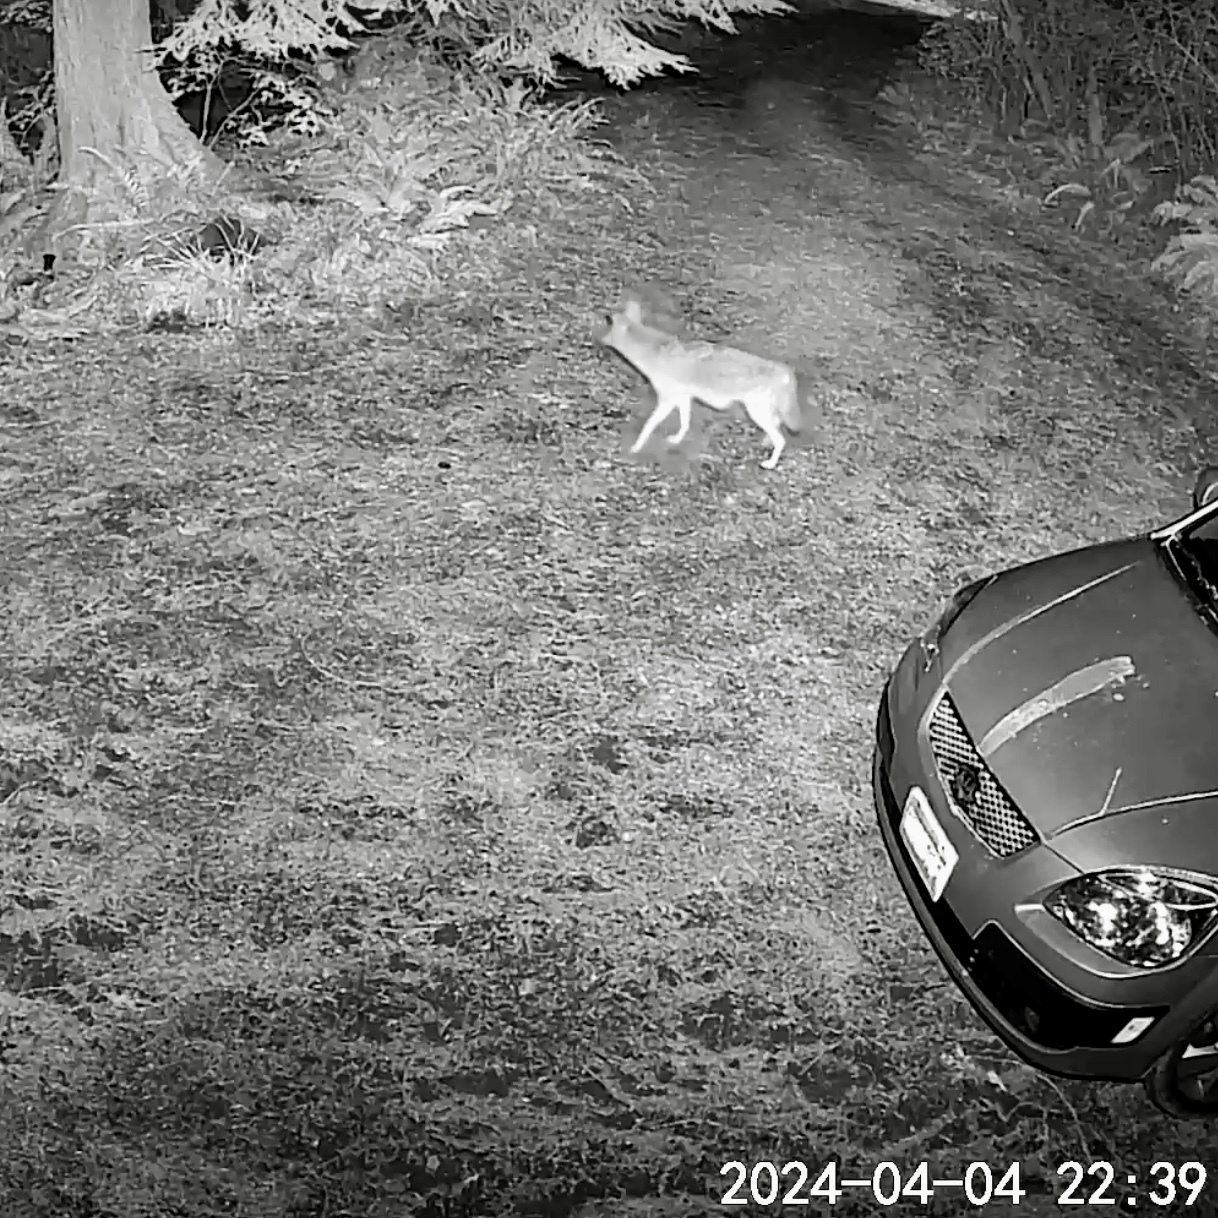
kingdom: Animalia
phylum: Chordata
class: Mammalia
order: Carnivora
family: Canidae
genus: Canis
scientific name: Canis latrans
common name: Coyote
